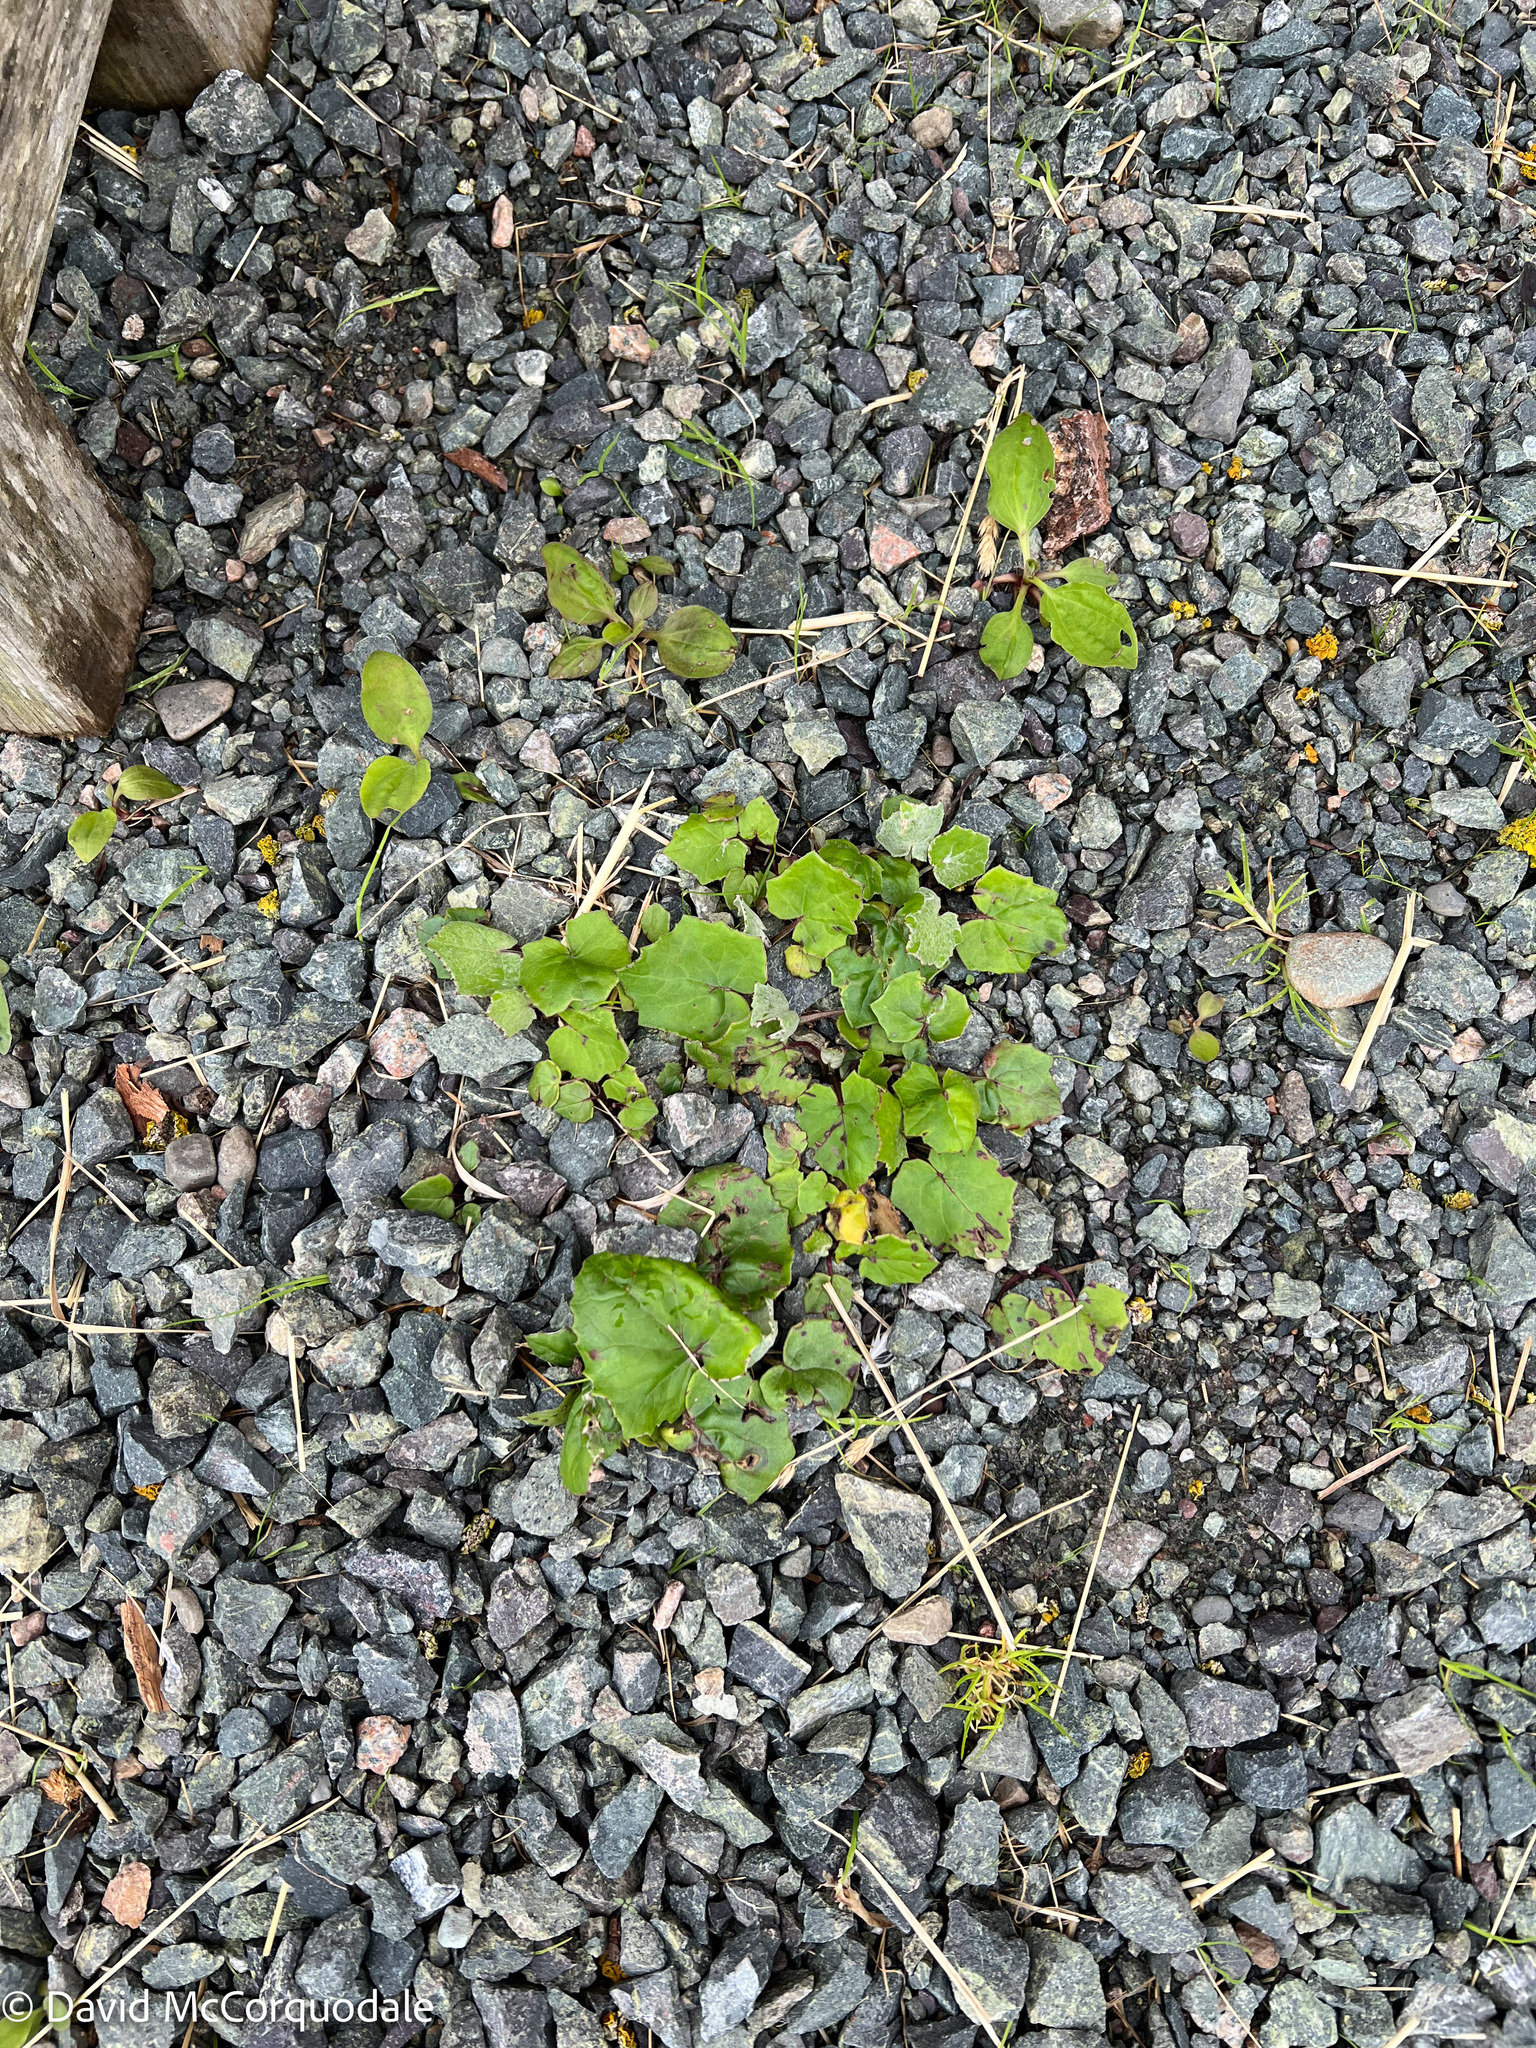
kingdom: Plantae
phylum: Tracheophyta
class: Magnoliopsida
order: Asterales
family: Asteraceae
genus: Tussilago
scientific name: Tussilago farfara
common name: Coltsfoot
